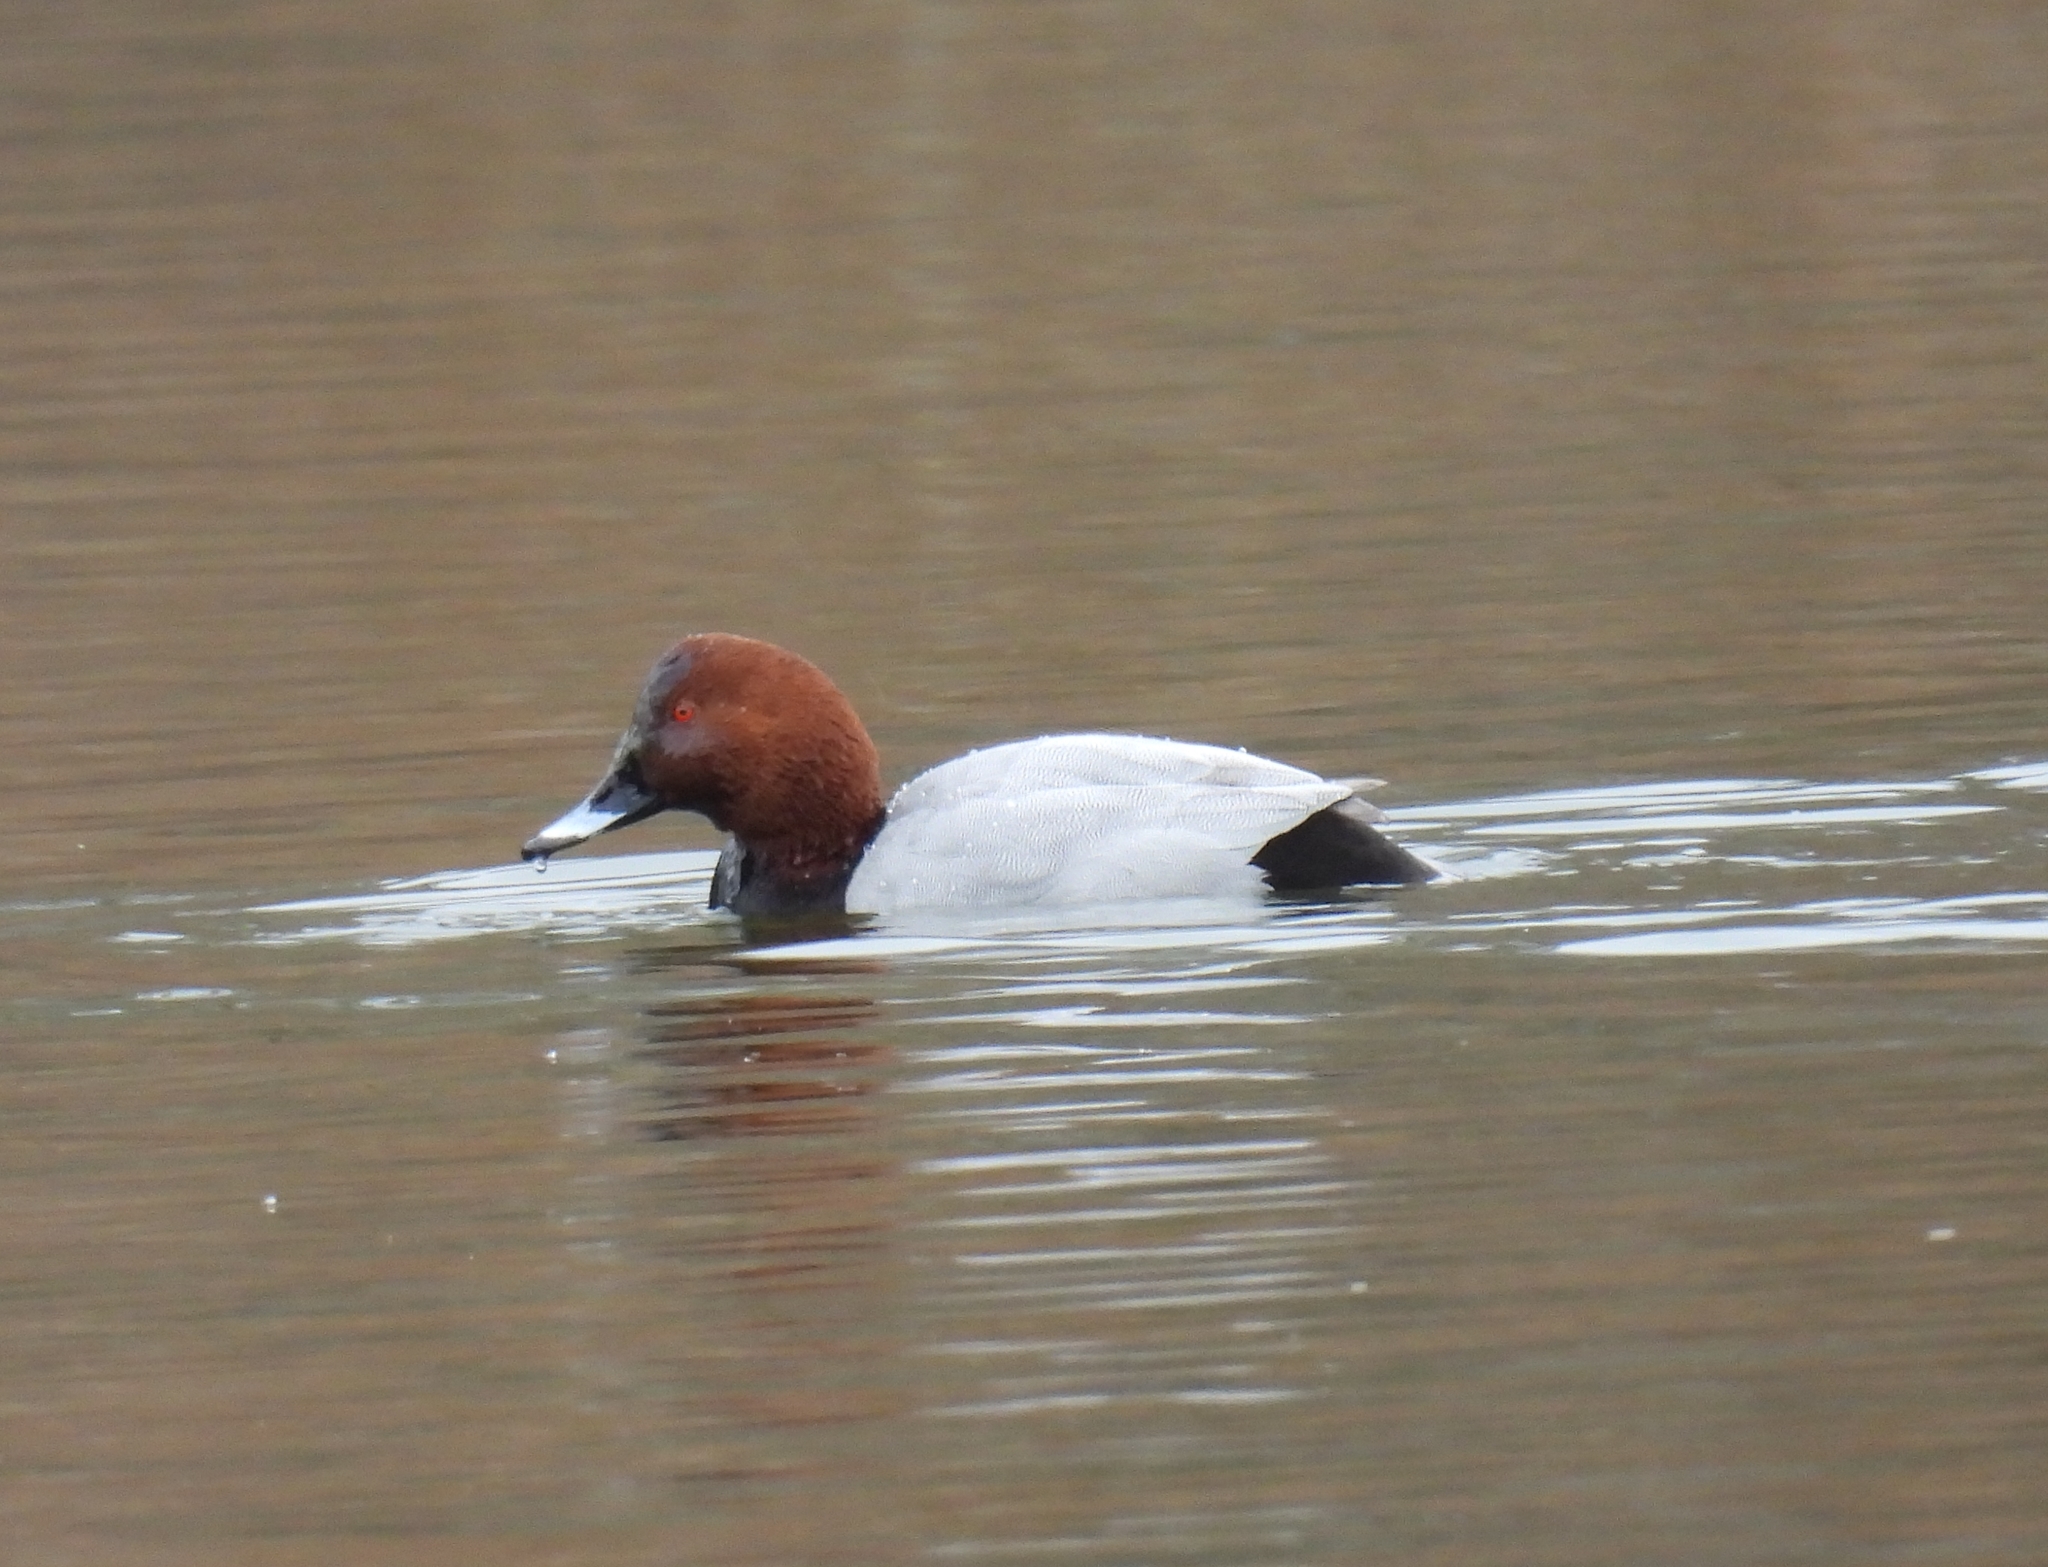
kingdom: Animalia
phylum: Chordata
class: Aves
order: Anseriformes
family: Anatidae
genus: Aythya
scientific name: Aythya ferina
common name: Common pochard
